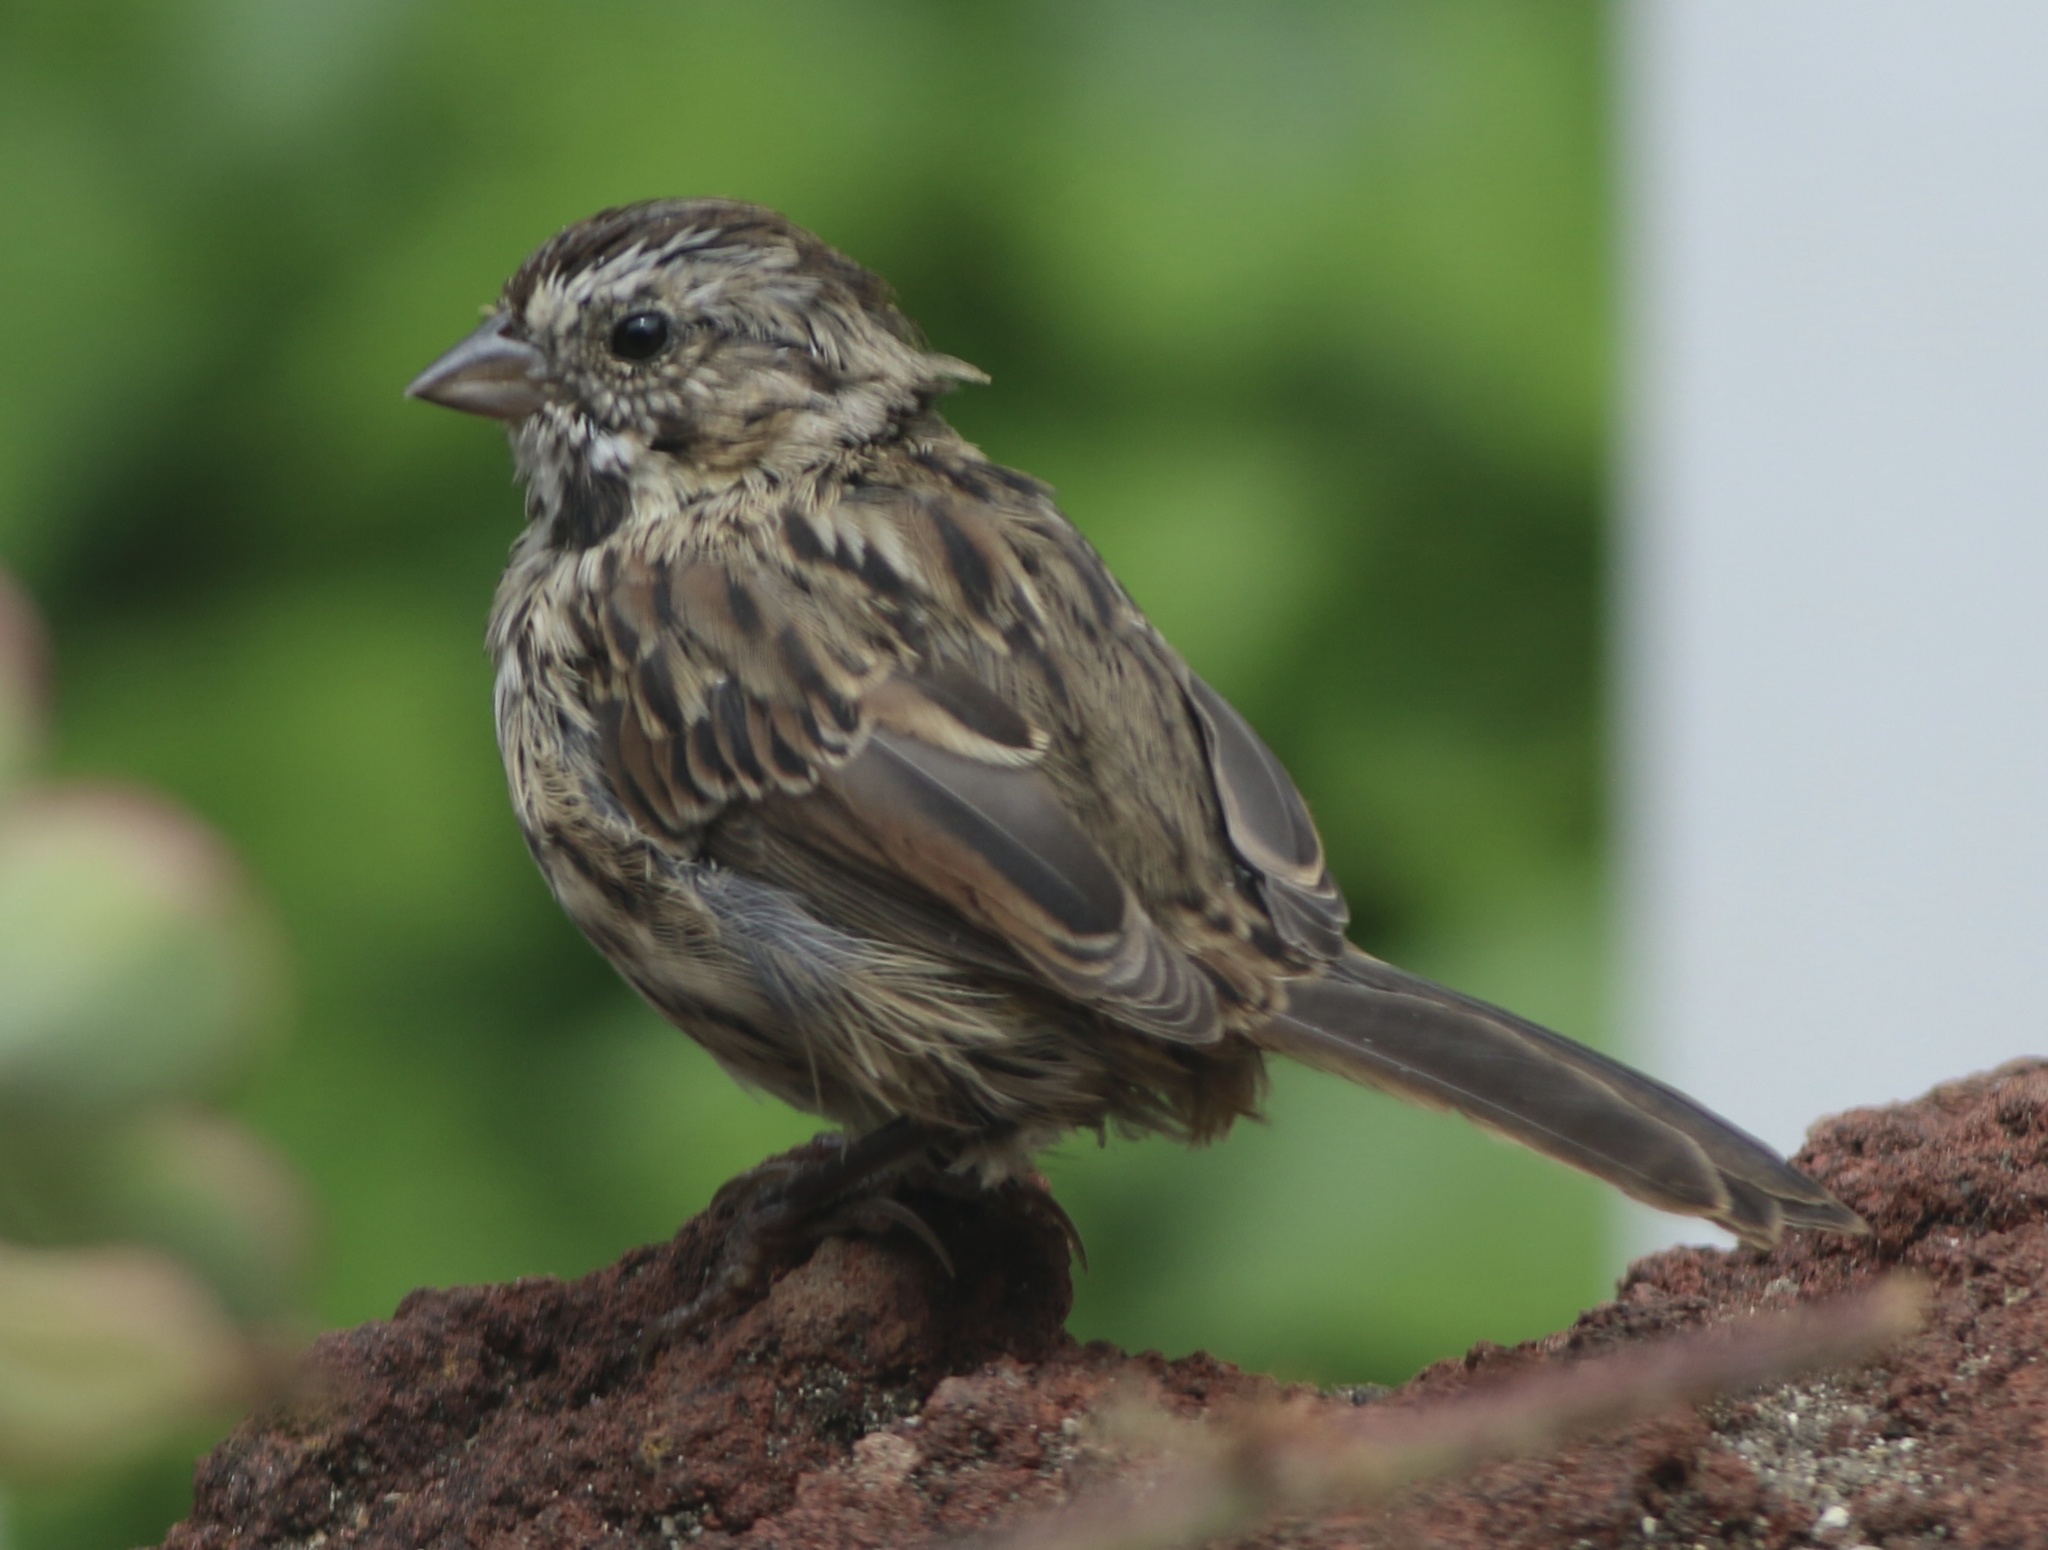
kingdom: Animalia
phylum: Chordata
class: Aves
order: Passeriformes
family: Passerellidae
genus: Melospiza
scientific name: Melospiza melodia
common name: Song sparrow
